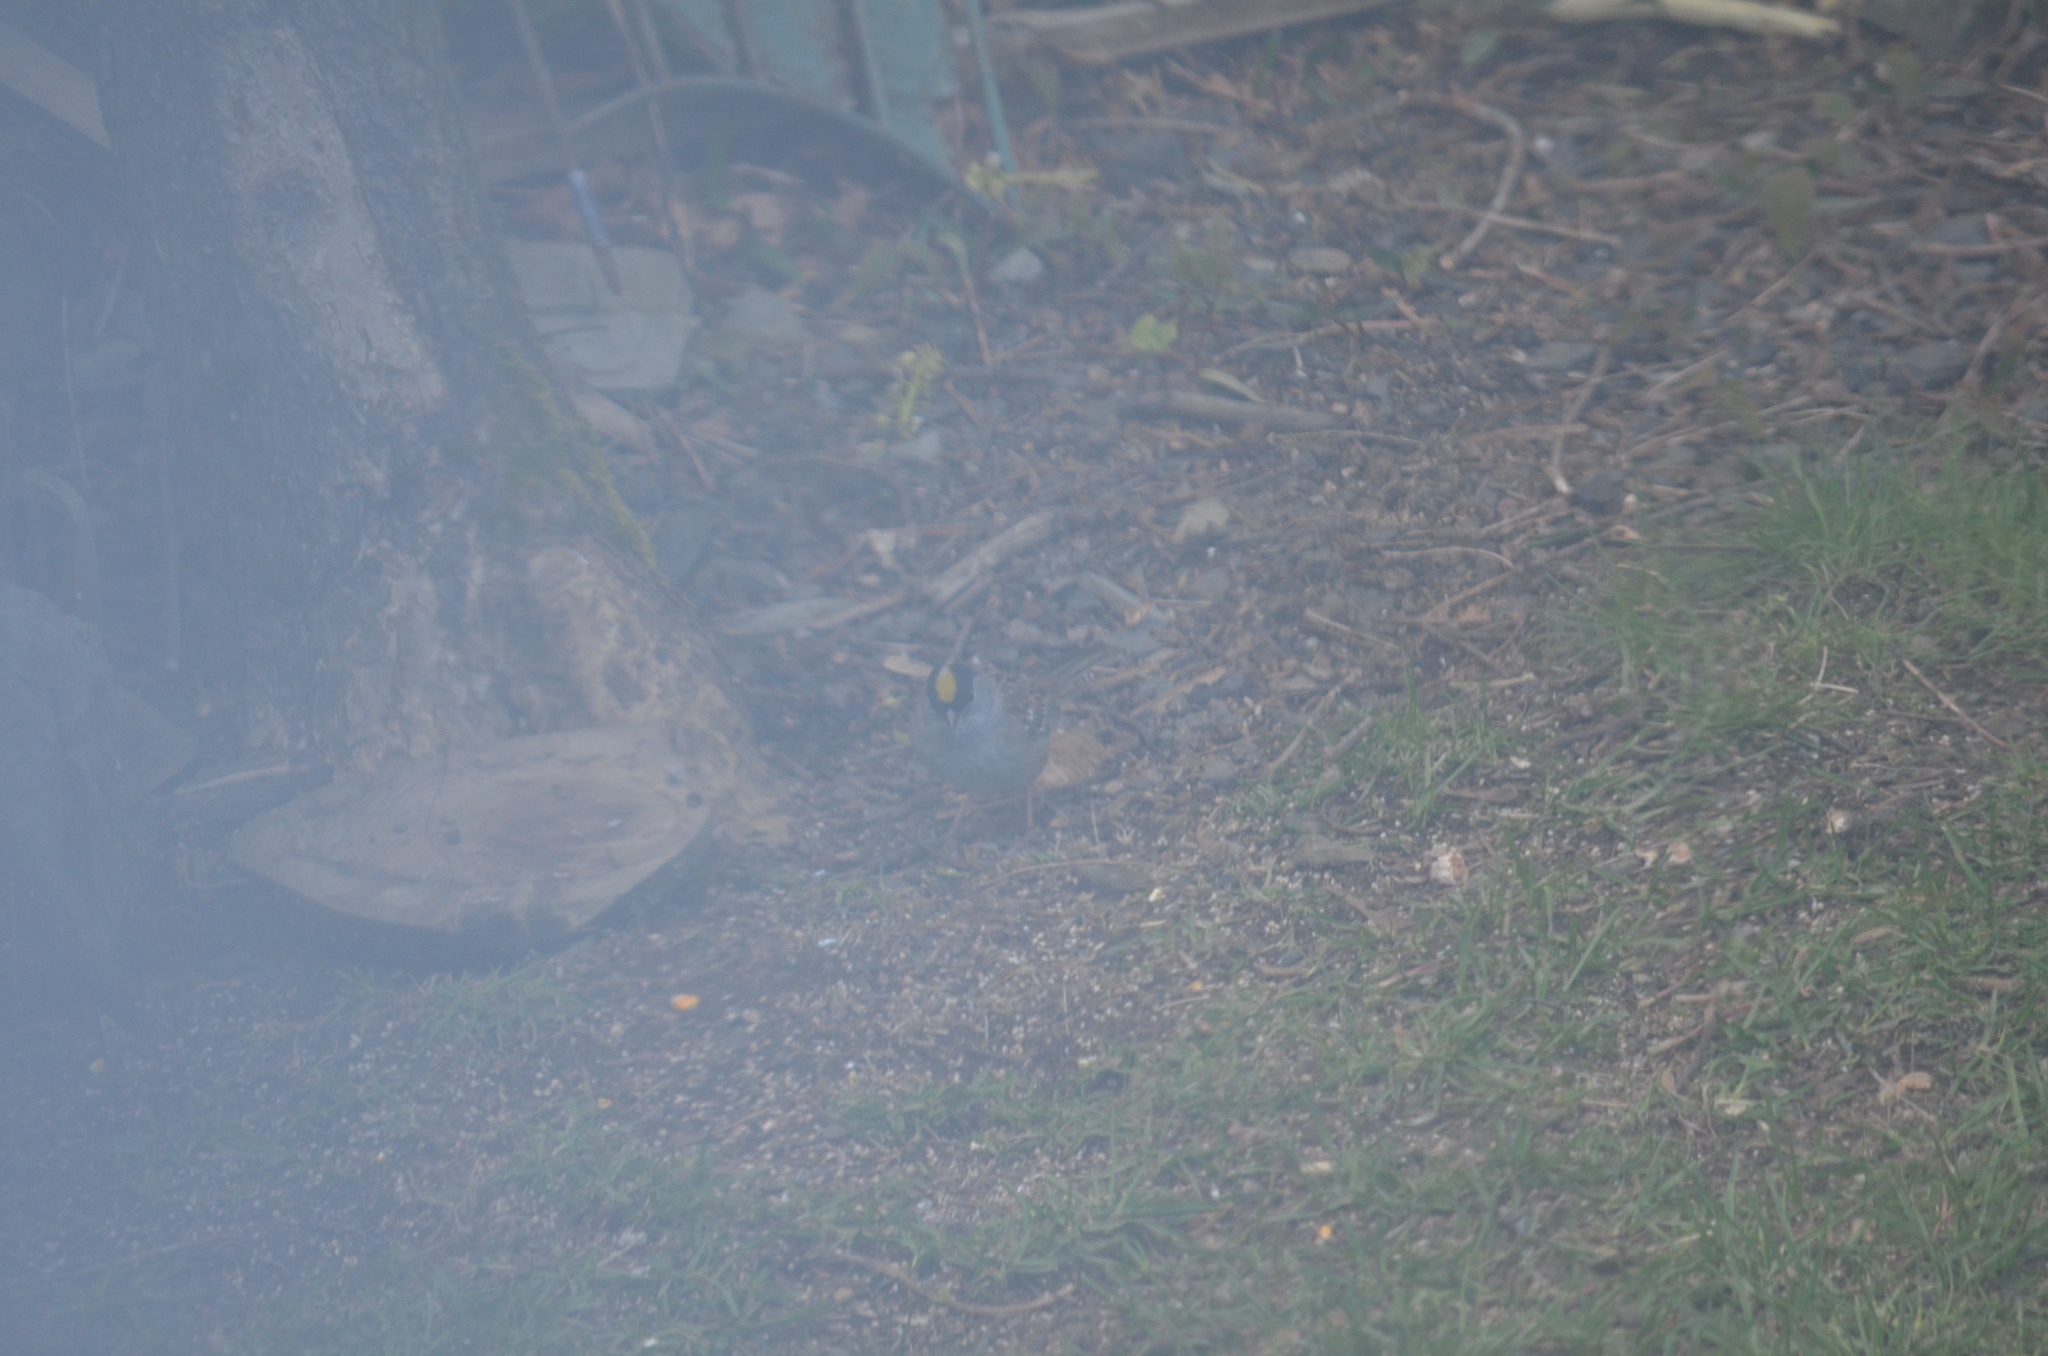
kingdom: Animalia
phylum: Chordata
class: Aves
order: Passeriformes
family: Passerellidae
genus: Zonotrichia
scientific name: Zonotrichia atricapilla
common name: Golden-crowned sparrow
